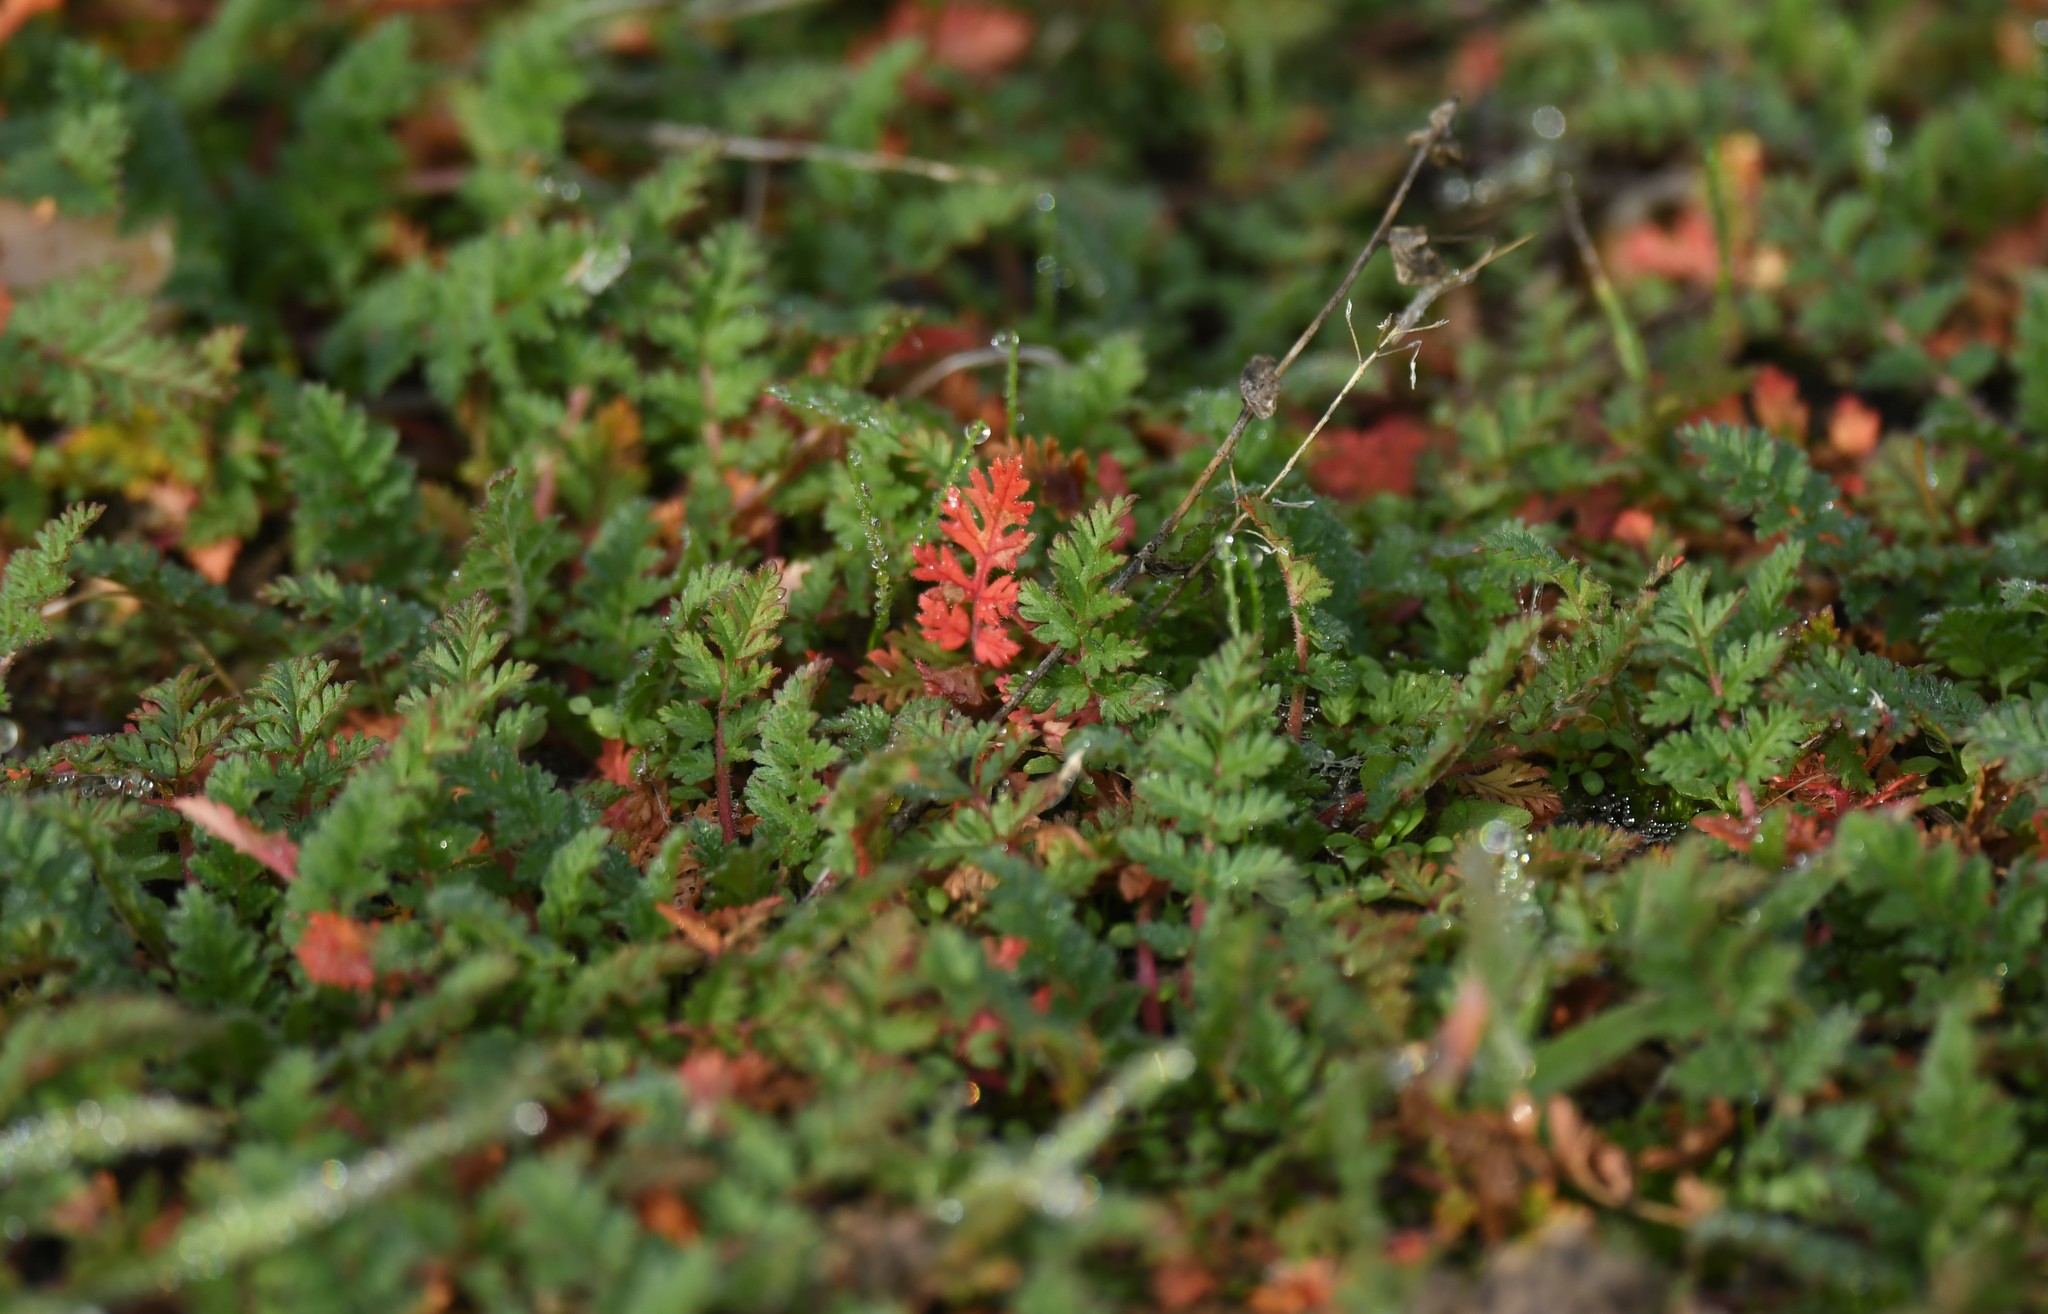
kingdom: Plantae
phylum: Tracheophyta
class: Magnoliopsida
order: Geraniales
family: Geraniaceae
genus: Erodium
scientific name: Erodium cicutarium
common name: Common stork's-bill
